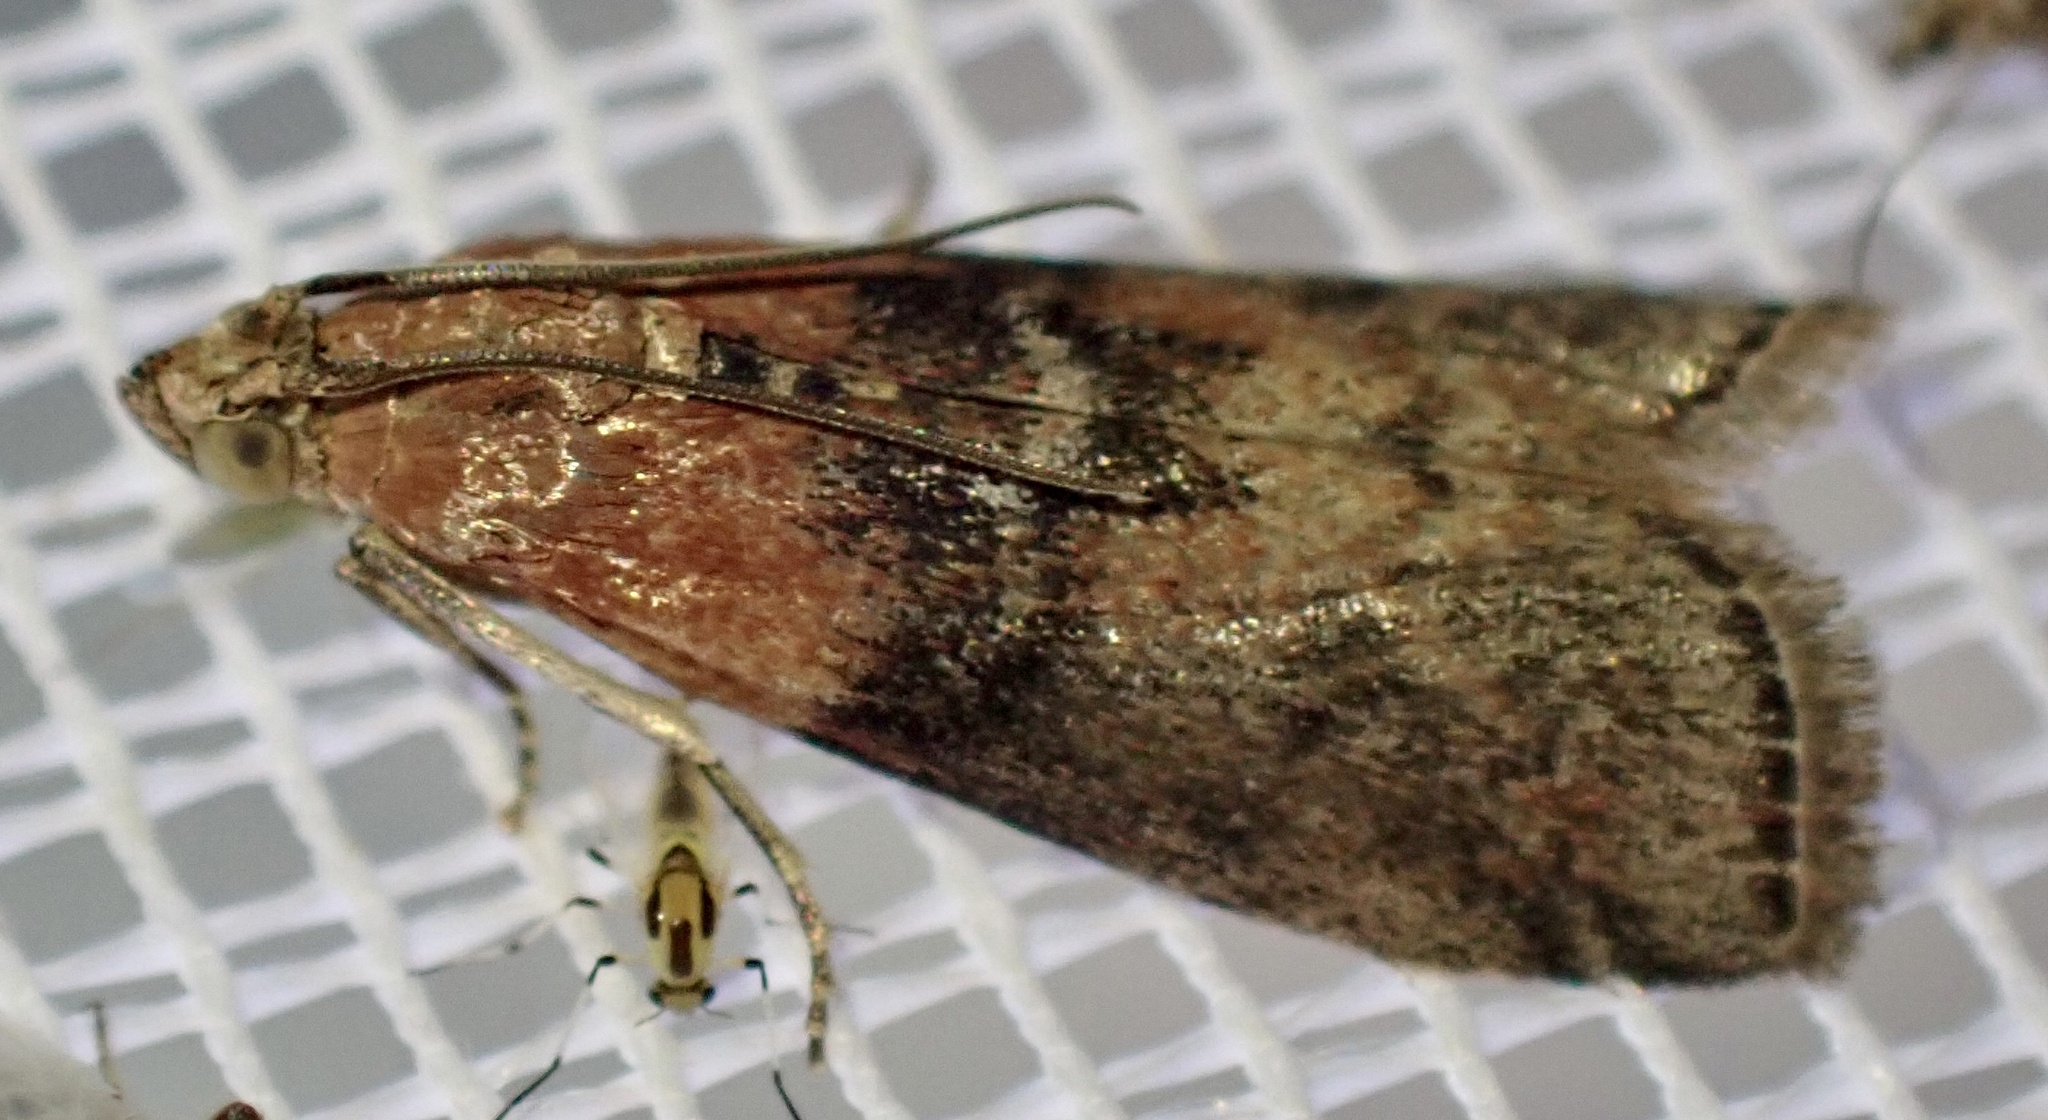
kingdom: Animalia
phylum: Arthropoda
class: Insecta
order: Lepidoptera
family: Pyralidae
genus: Sciota
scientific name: Sciota adelphella
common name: Willow knot-horn
